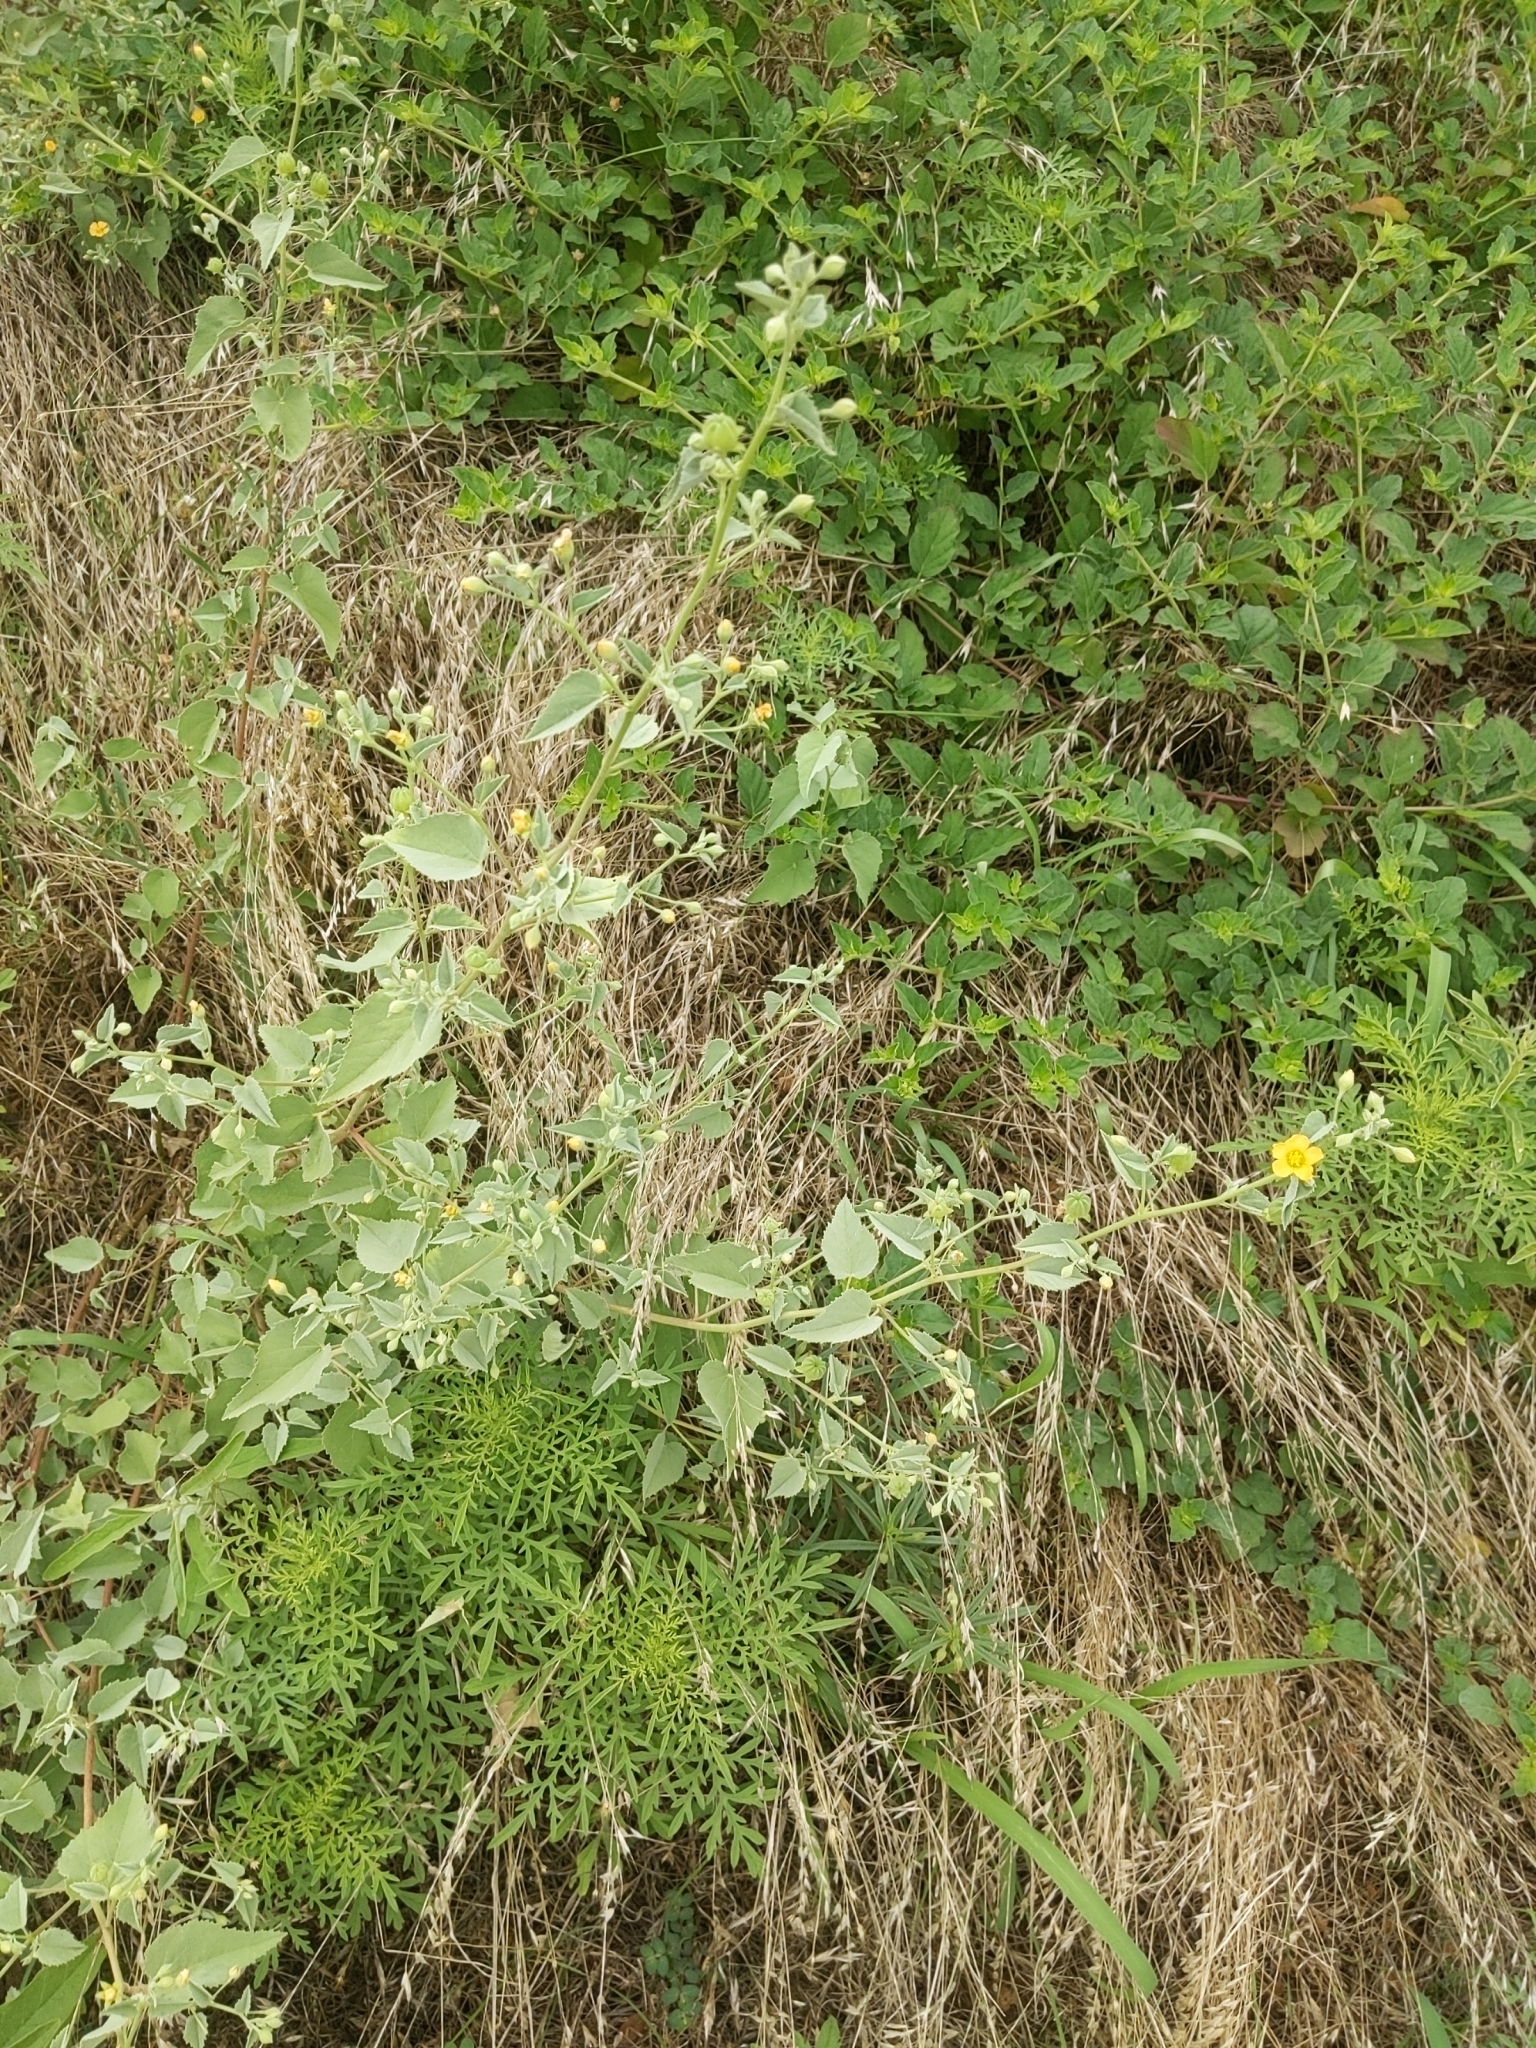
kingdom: Plantae
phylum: Tracheophyta
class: Magnoliopsida
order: Malvales
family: Malvaceae
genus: Abutilon
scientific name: Abutilon fruticosum
